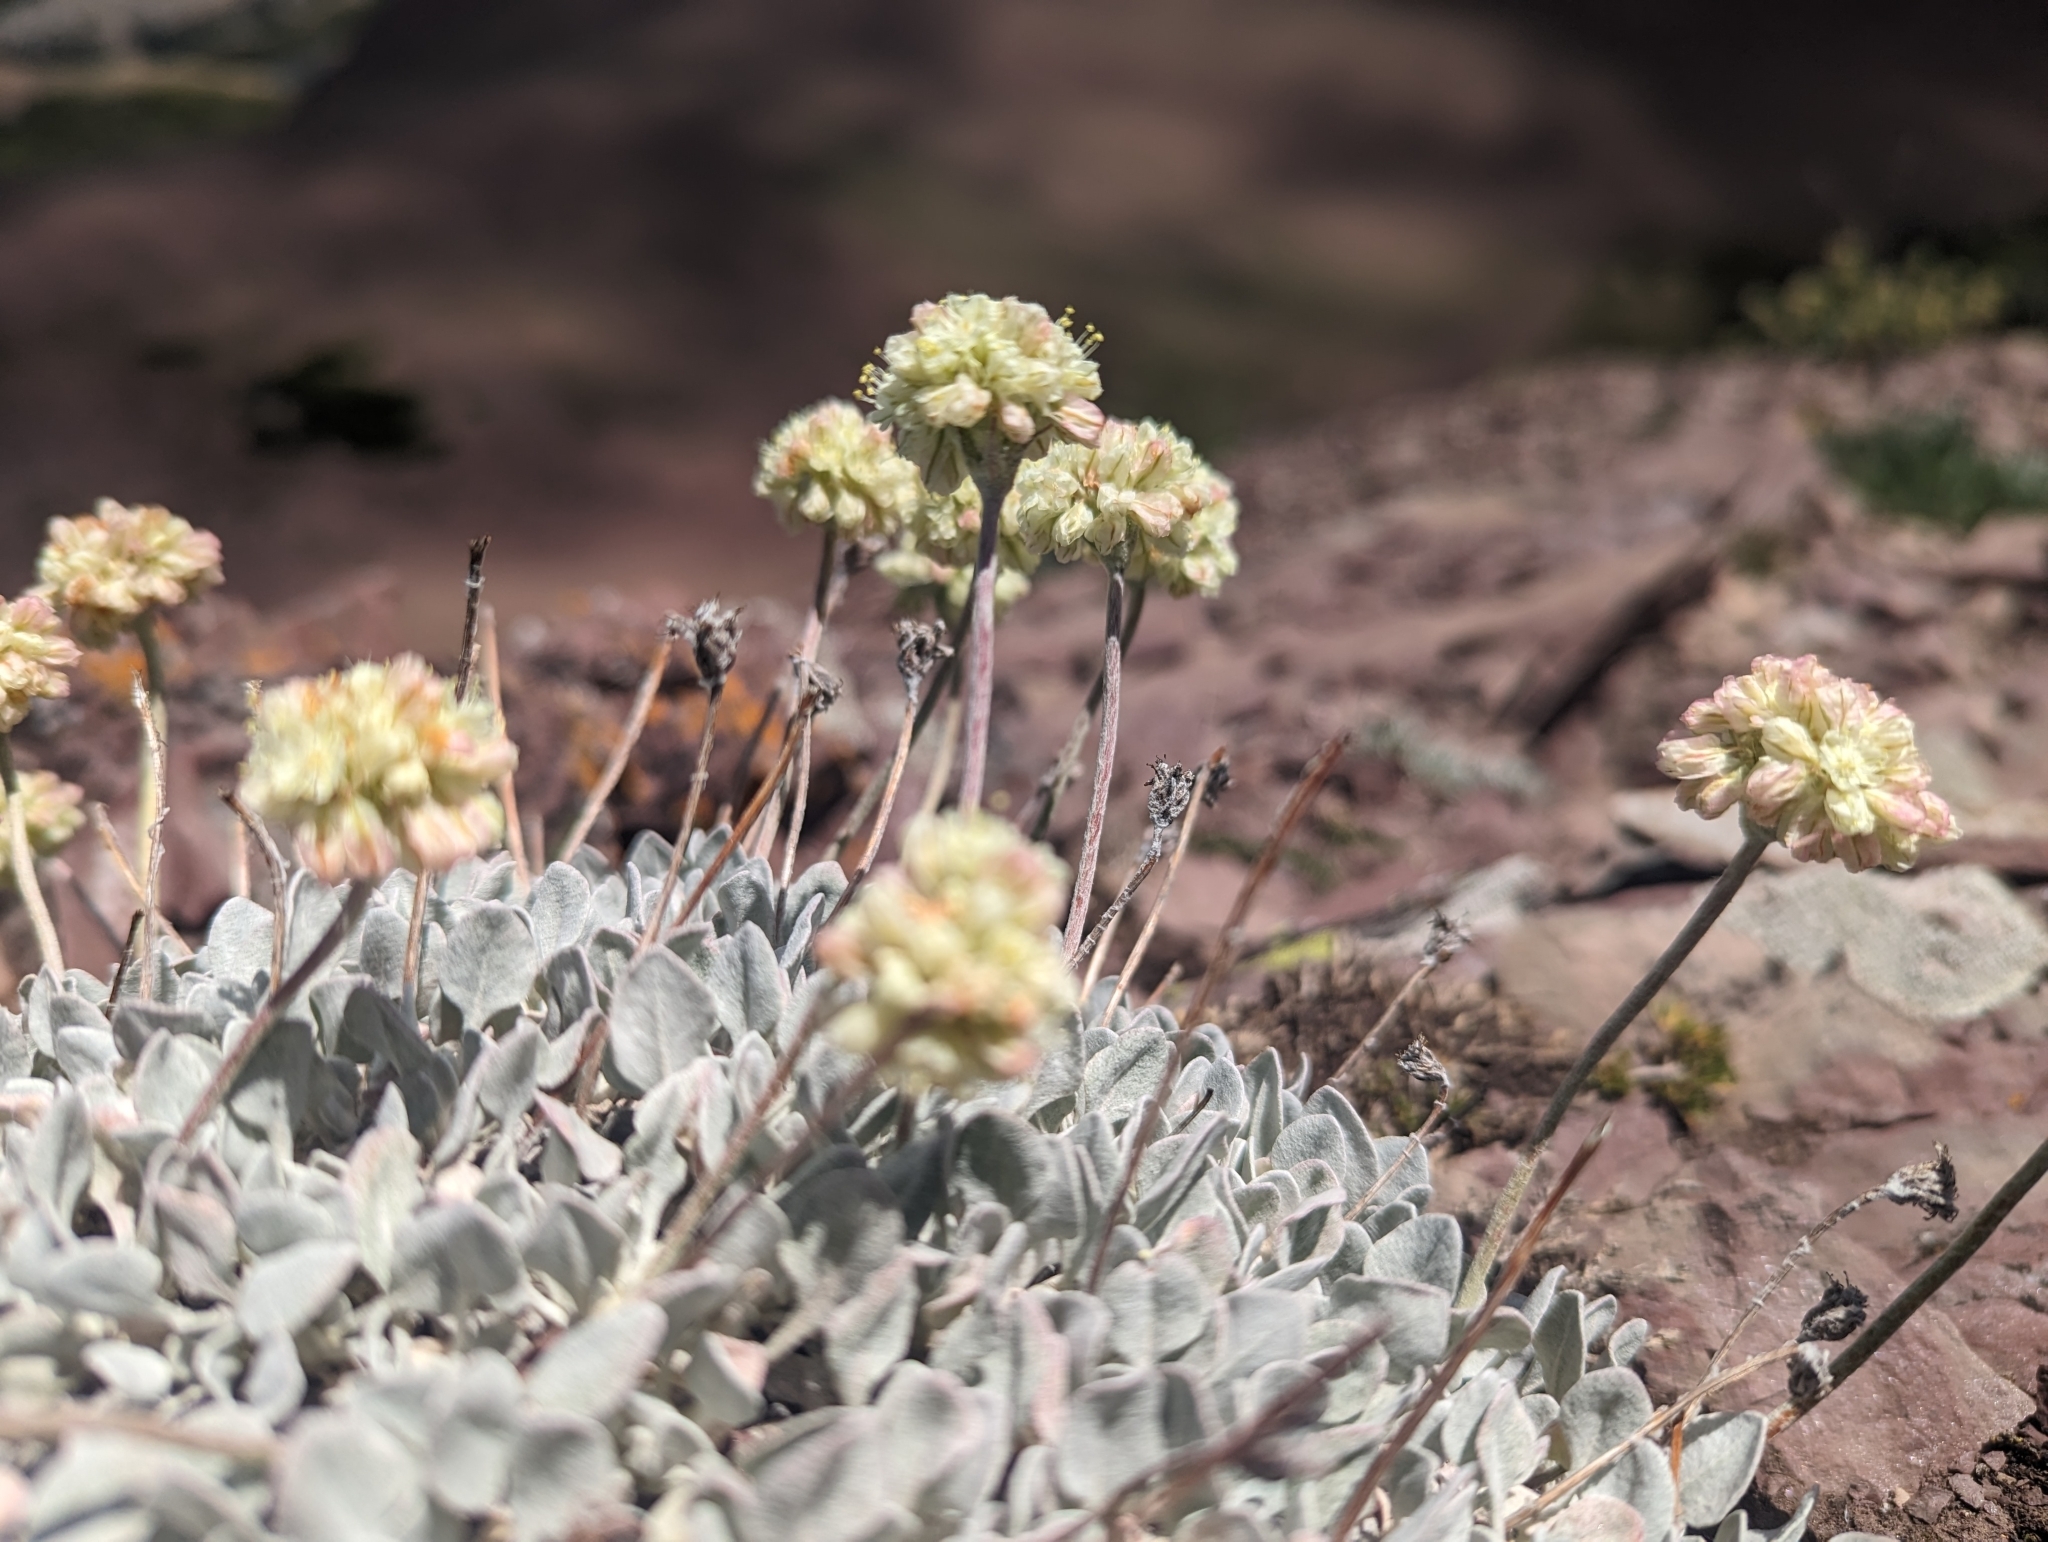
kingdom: Plantae
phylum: Tracheophyta
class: Magnoliopsida
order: Caryophyllales
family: Polygonaceae
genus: Eriogonum
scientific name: Eriogonum ovalifolium
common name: Cushion buckwheat
